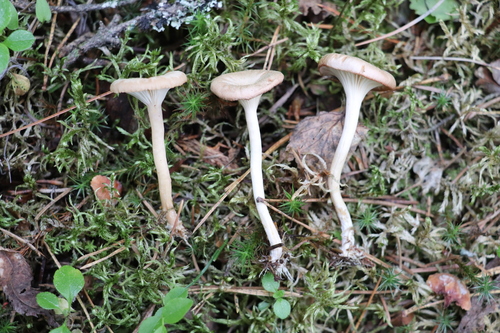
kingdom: Fungi
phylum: Basidiomycota
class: Agaricomycetes
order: Agaricales
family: Tricholomataceae
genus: Clitocybe
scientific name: Clitocybe vibecina
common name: Mealy funnel
